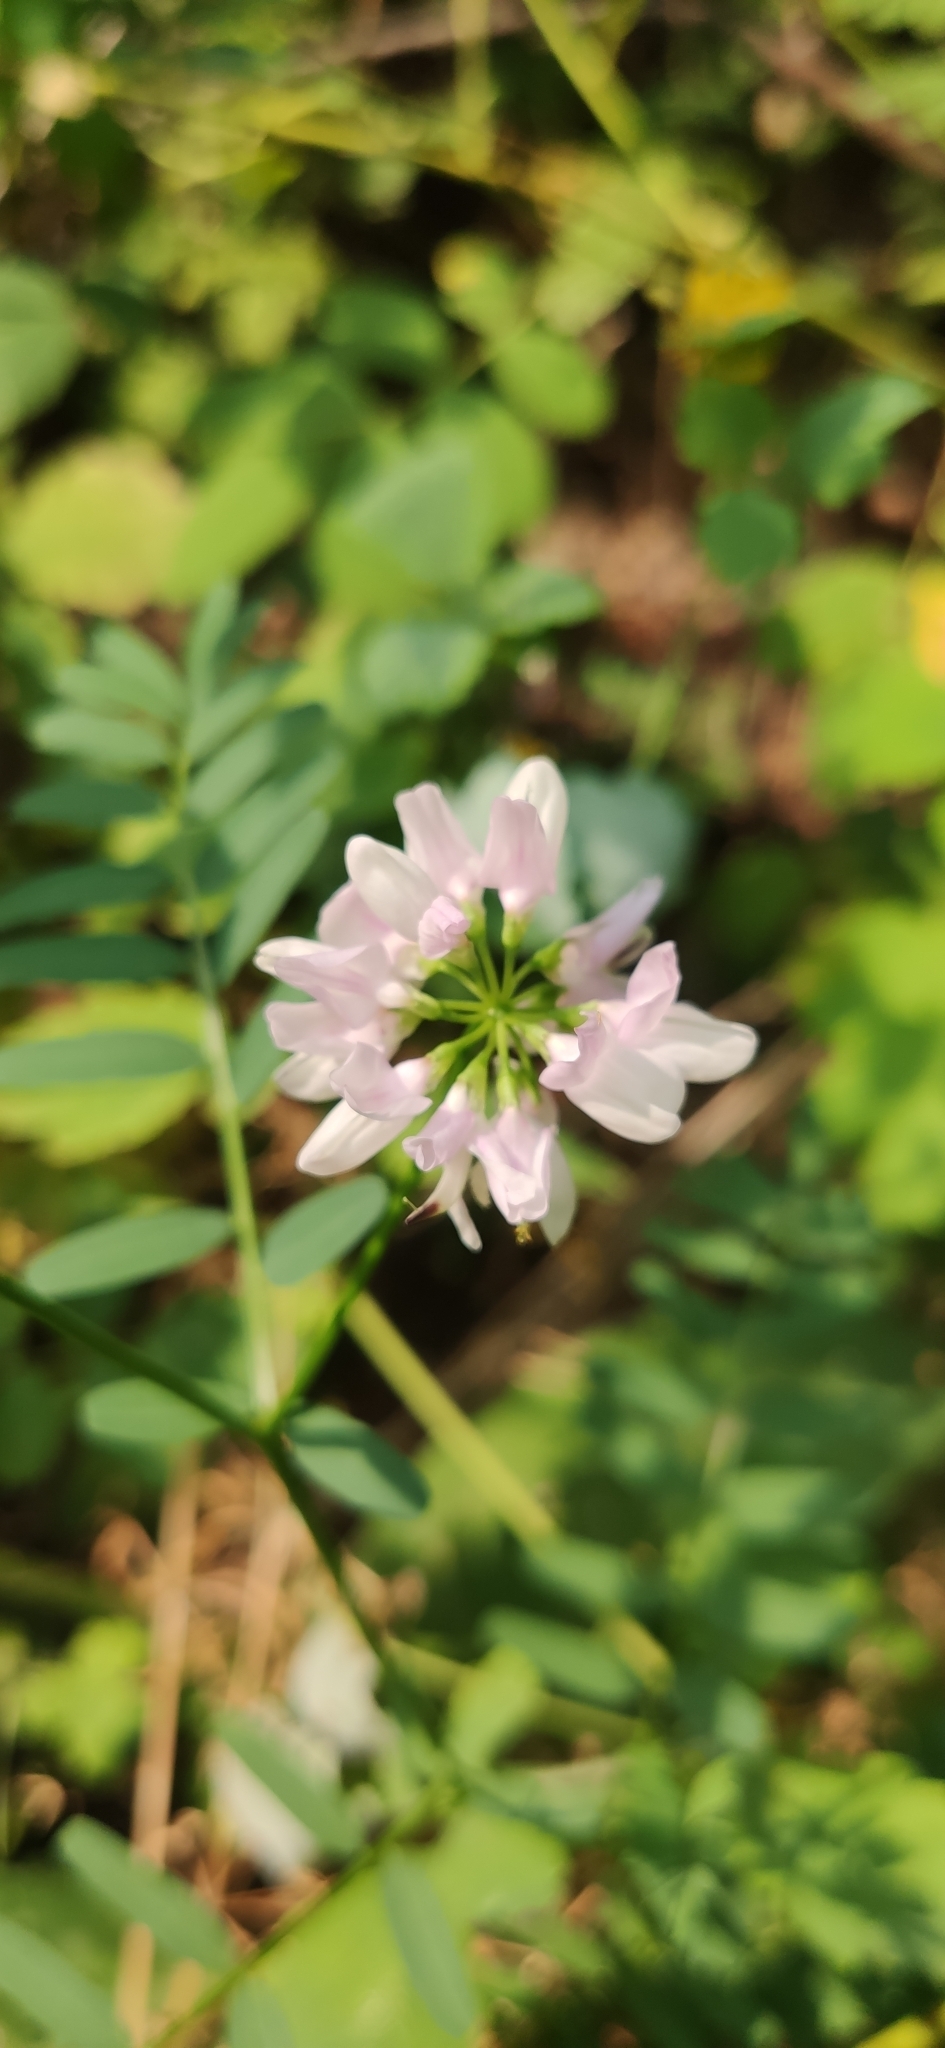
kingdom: Plantae
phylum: Tracheophyta
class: Magnoliopsida
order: Fabales
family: Fabaceae
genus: Coronilla
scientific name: Coronilla varia
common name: Crownvetch
